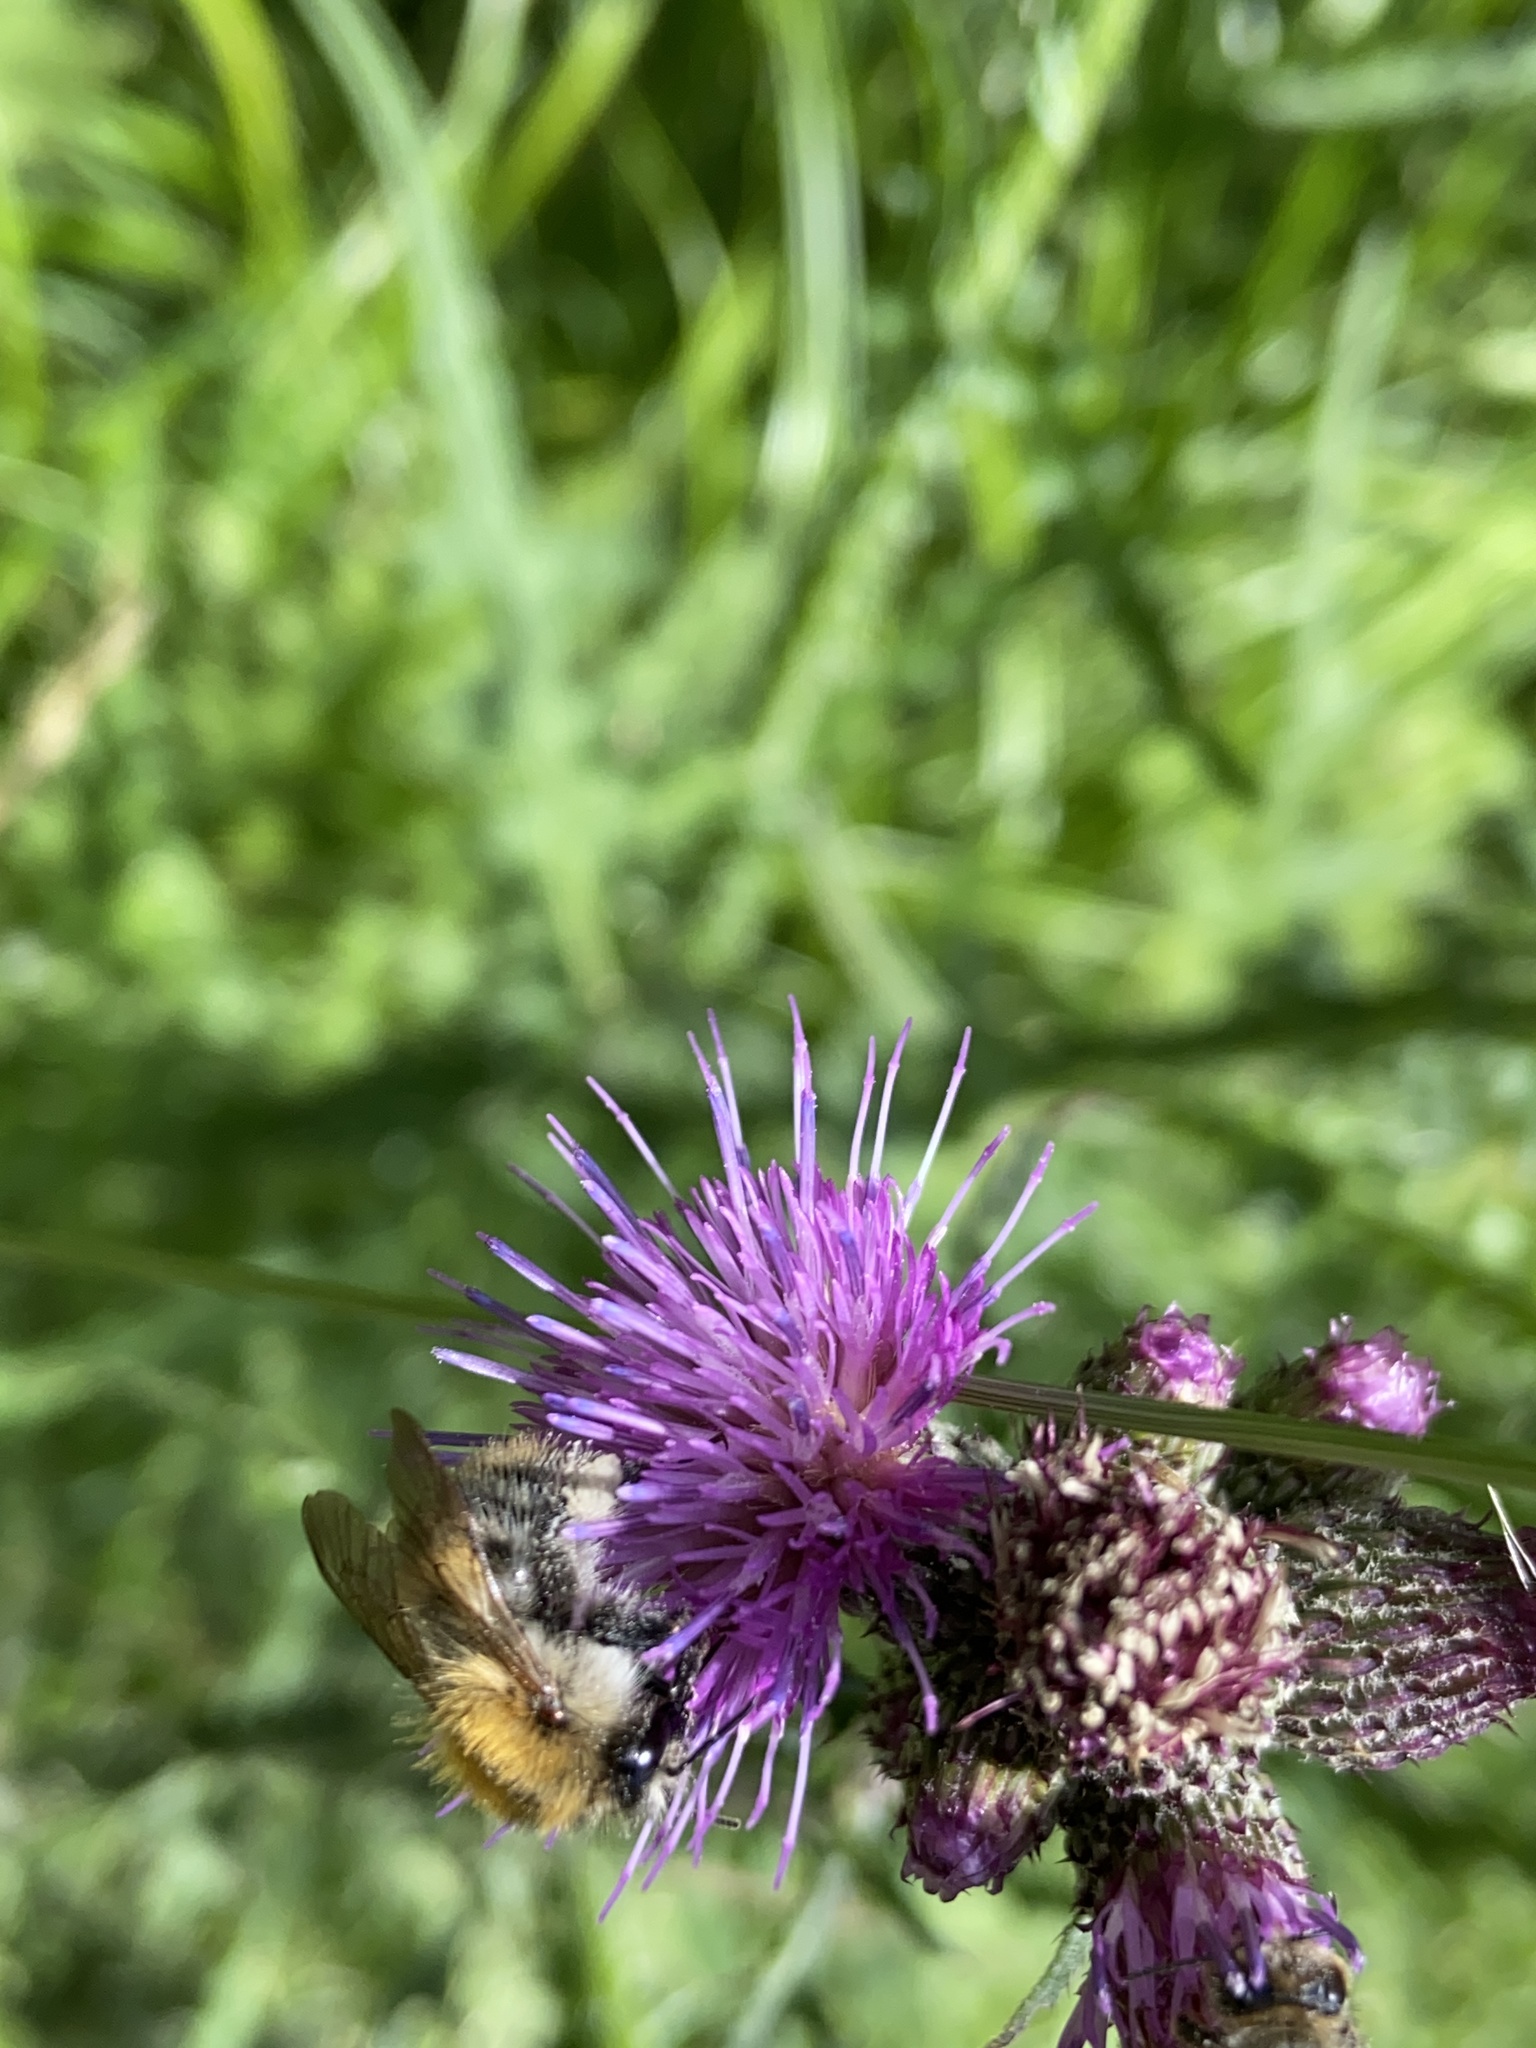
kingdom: Animalia
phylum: Arthropoda
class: Insecta
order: Hymenoptera
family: Apidae
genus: Bombus
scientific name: Bombus pascuorum
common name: Common carder bee
